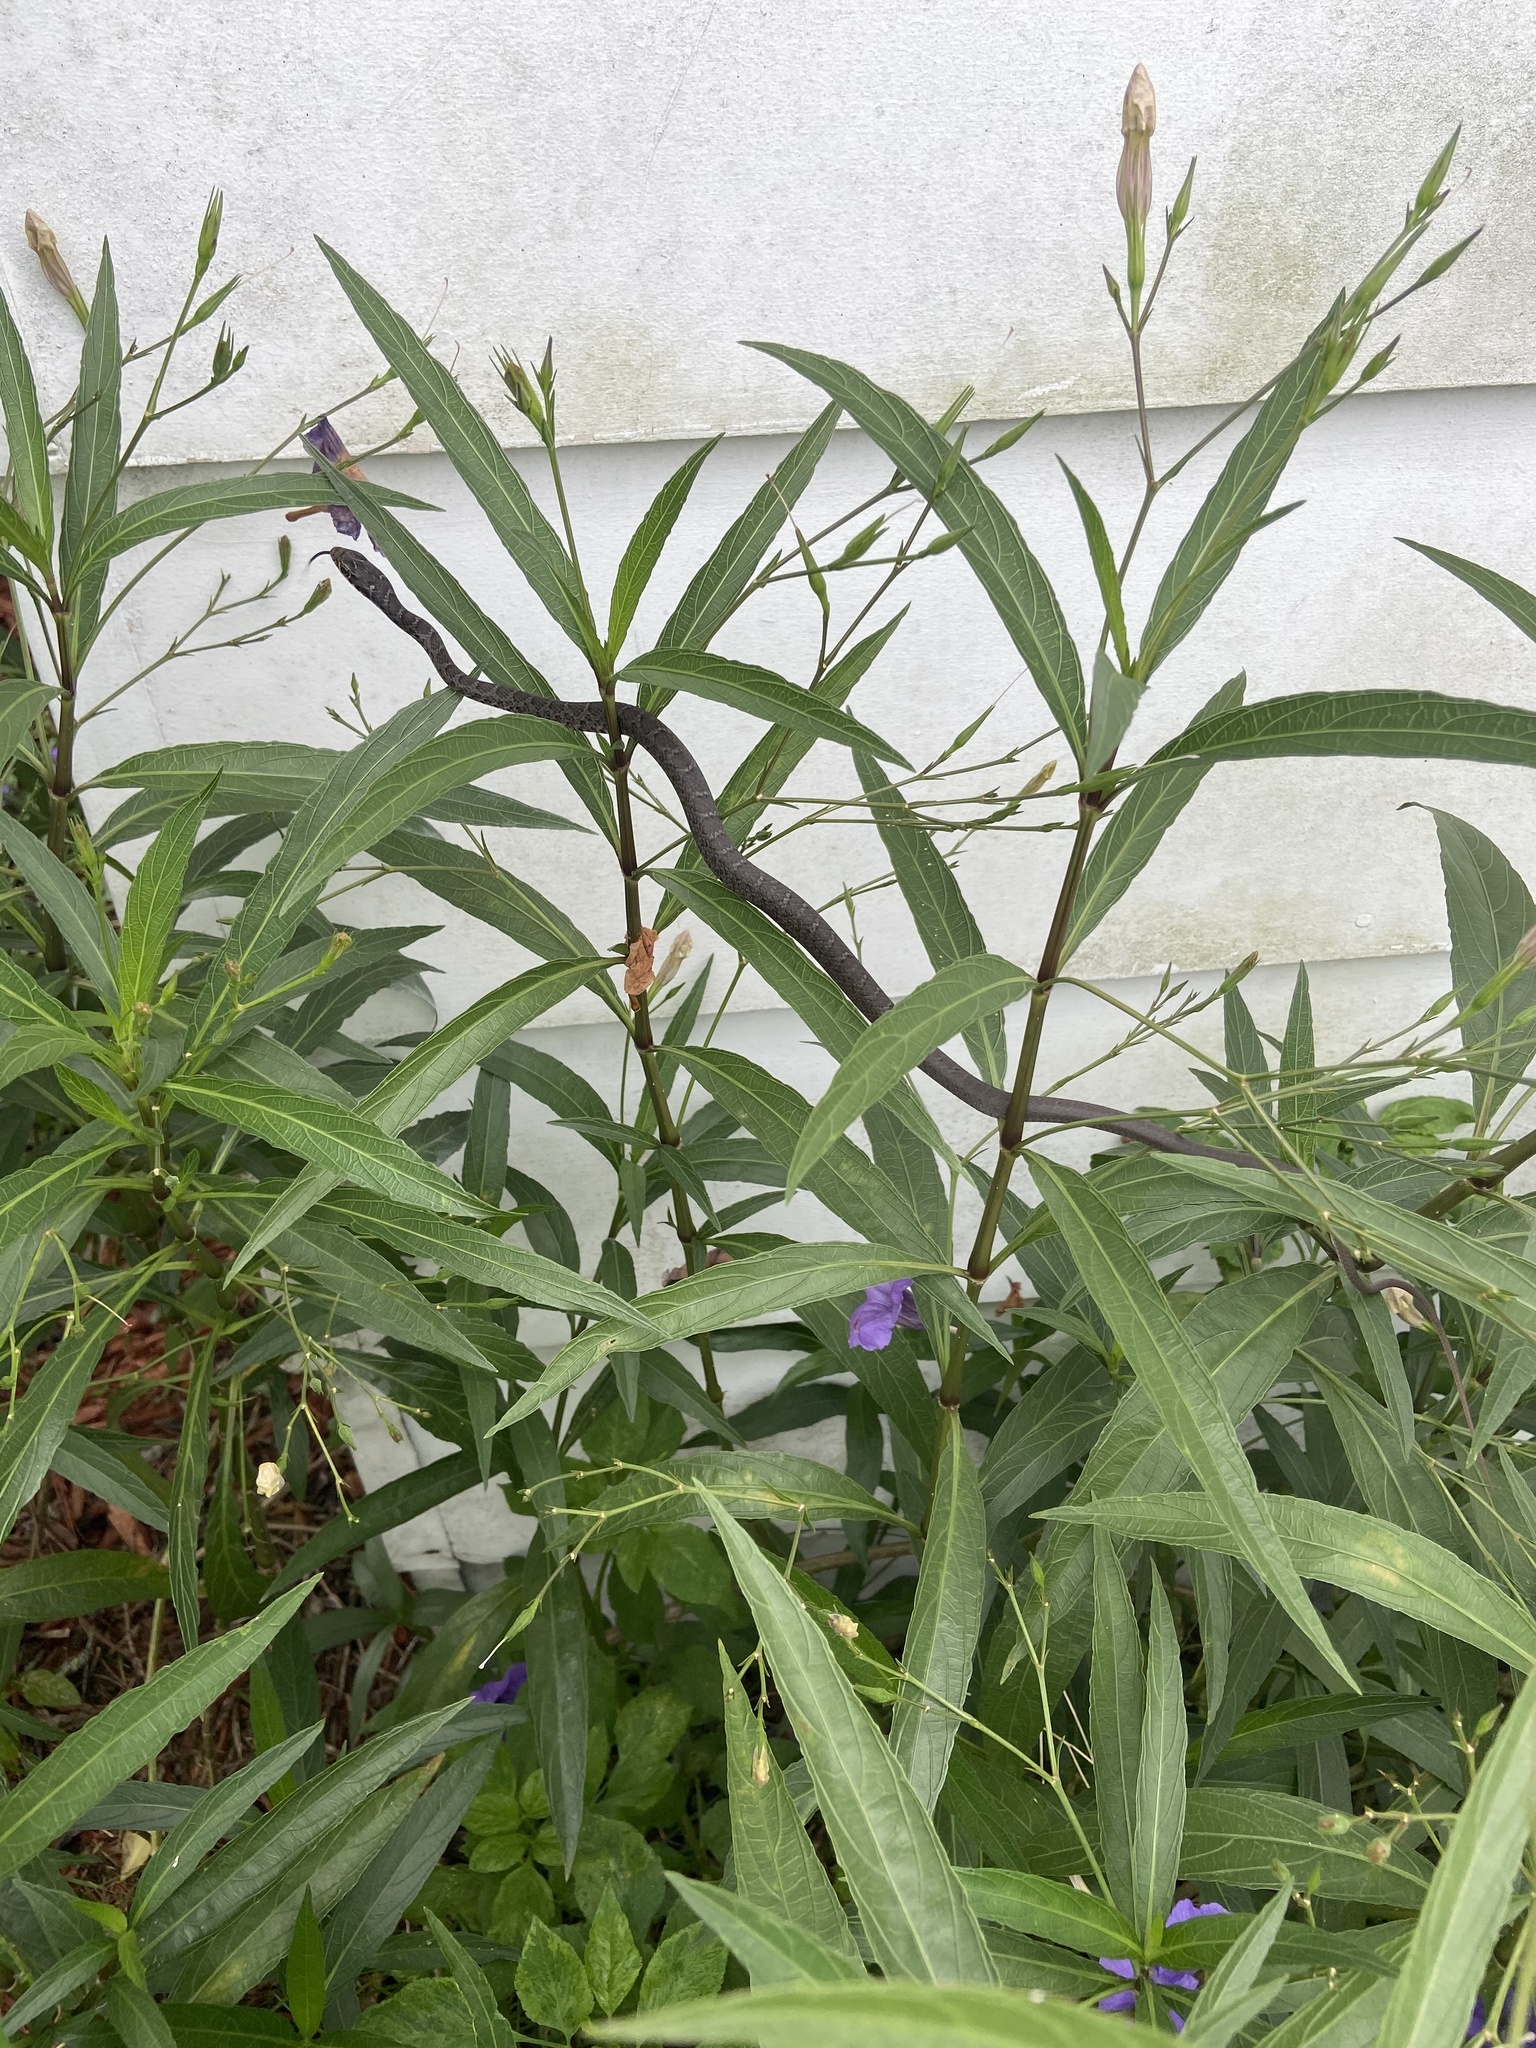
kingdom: Animalia
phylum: Chordata
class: Squamata
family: Colubridae
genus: Coluber
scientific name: Coluber constrictor
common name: Eastern racer
